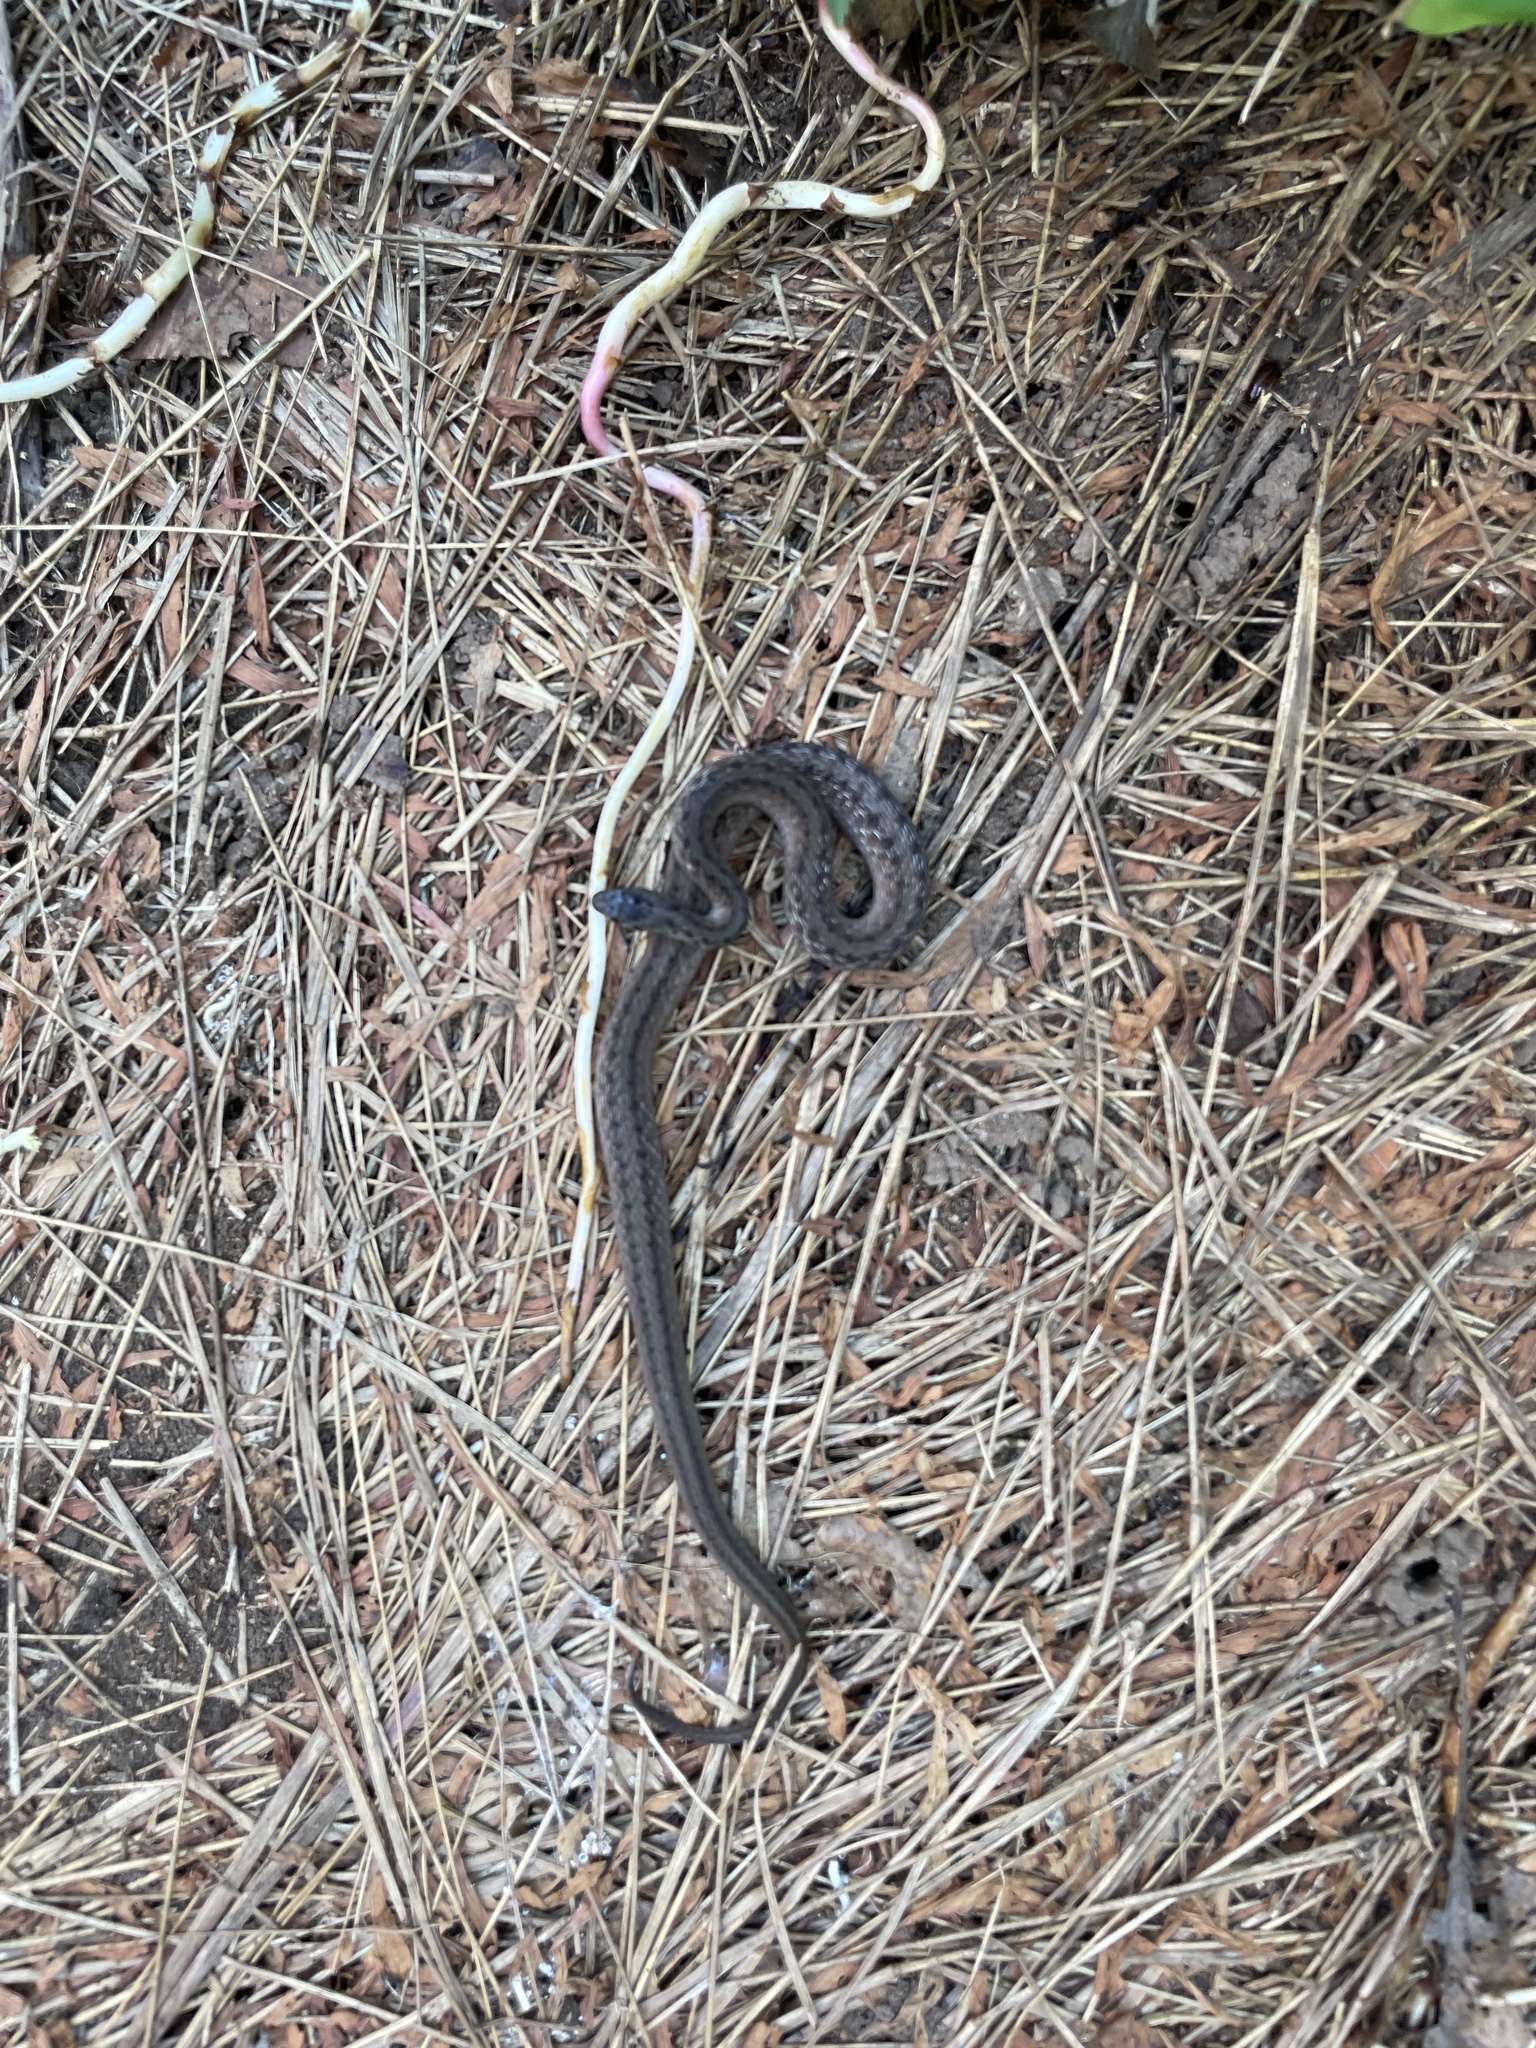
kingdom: Animalia
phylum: Chordata
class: Squamata
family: Colubridae
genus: Storeria
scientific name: Storeria dekayi
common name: (dekay’s) brown snake
